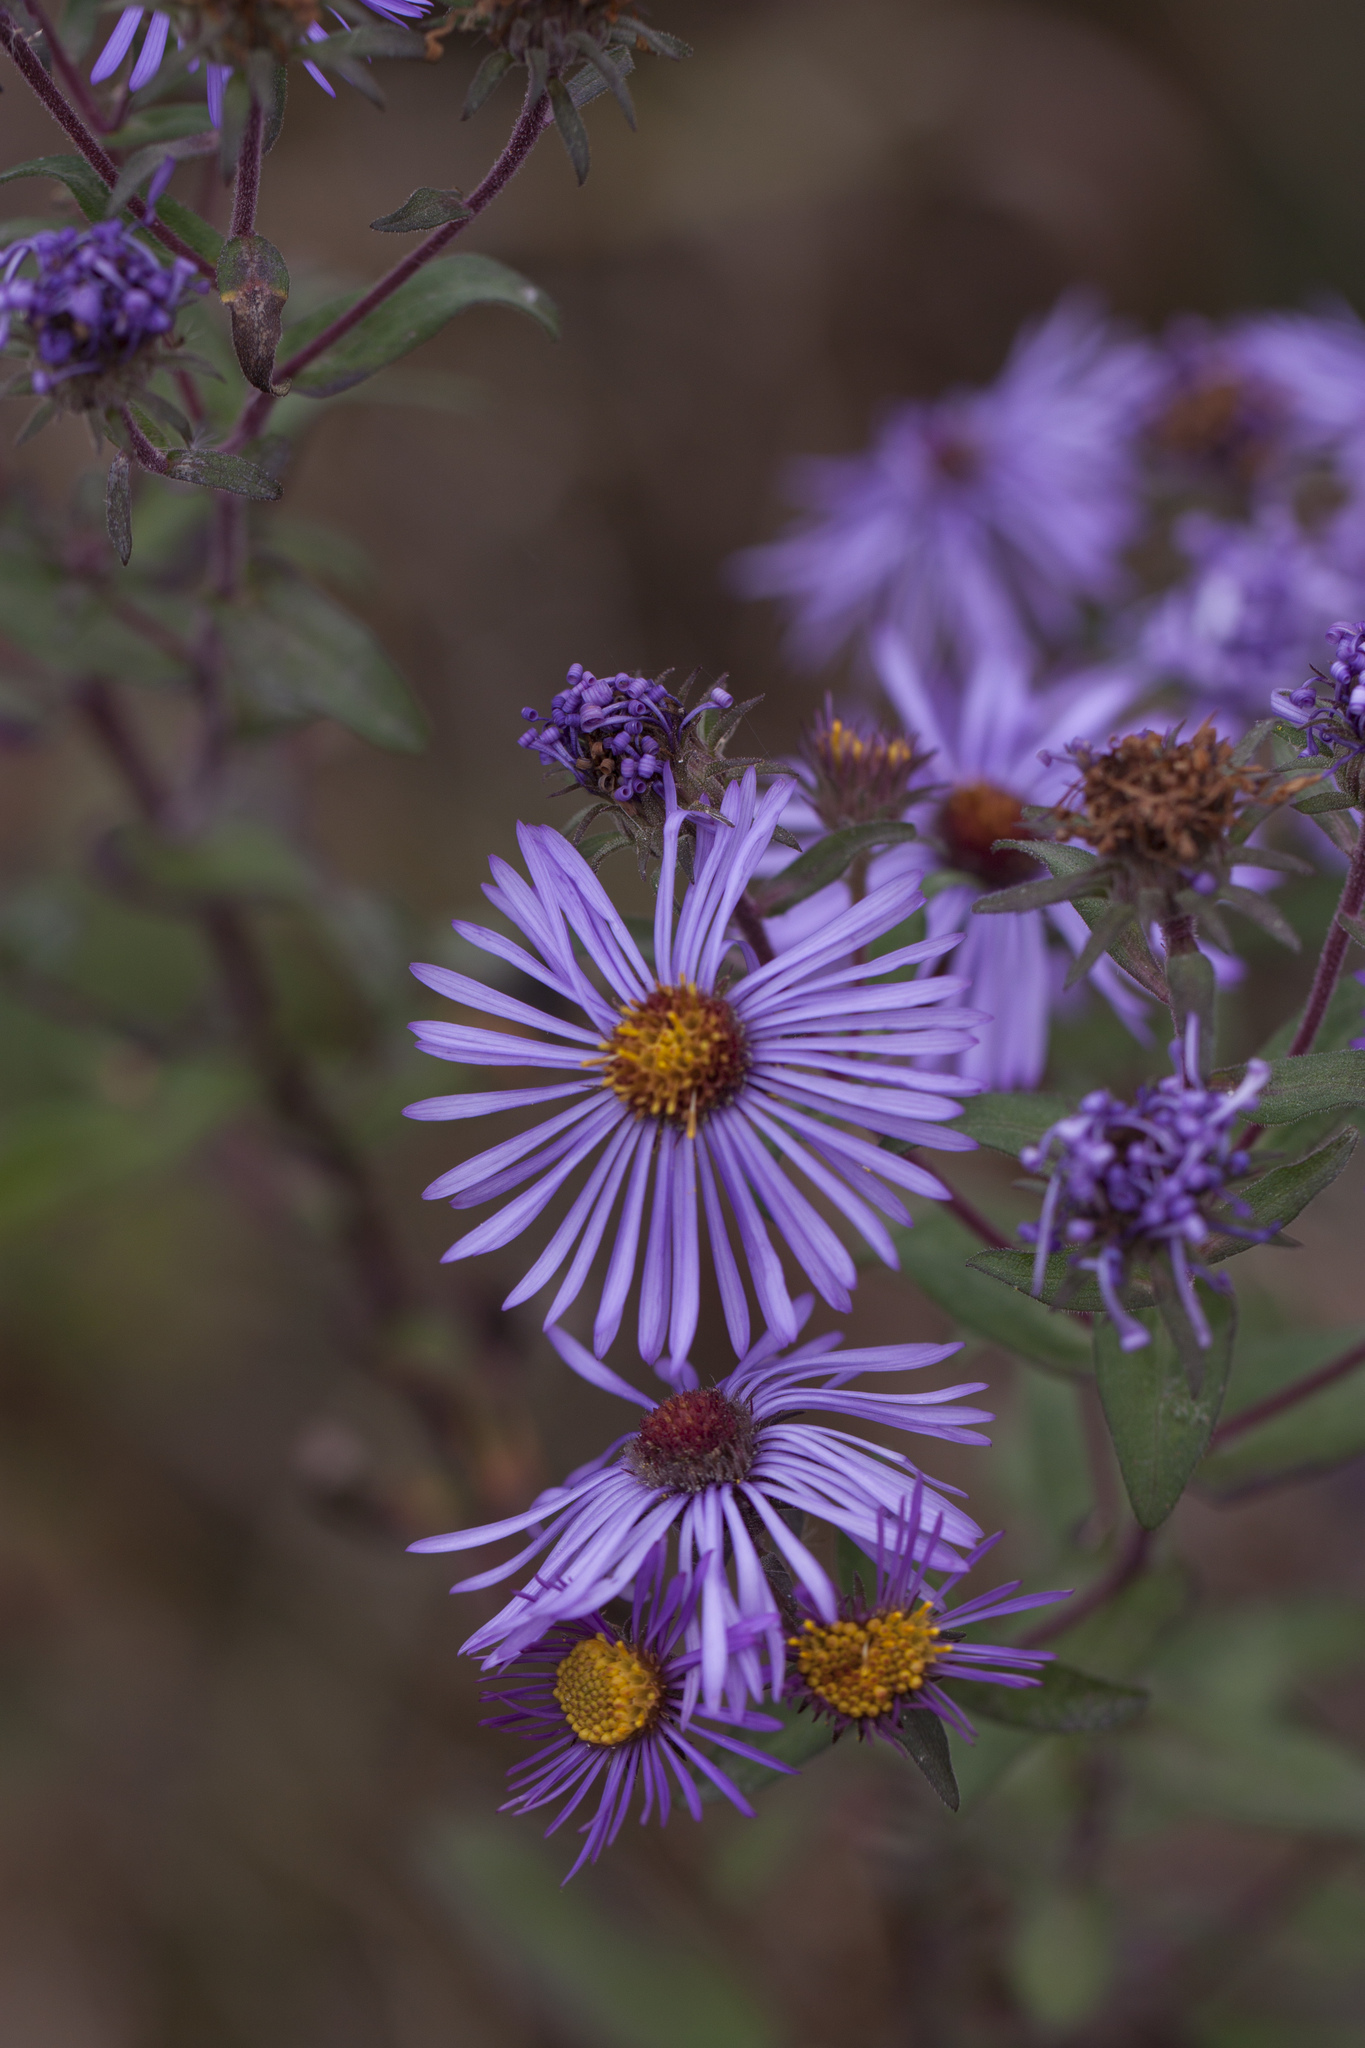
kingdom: Plantae
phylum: Tracheophyta
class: Magnoliopsida
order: Asterales
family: Asteraceae
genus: Symphyotrichum
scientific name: Symphyotrichum novae-angliae
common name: Michaelmas daisy
